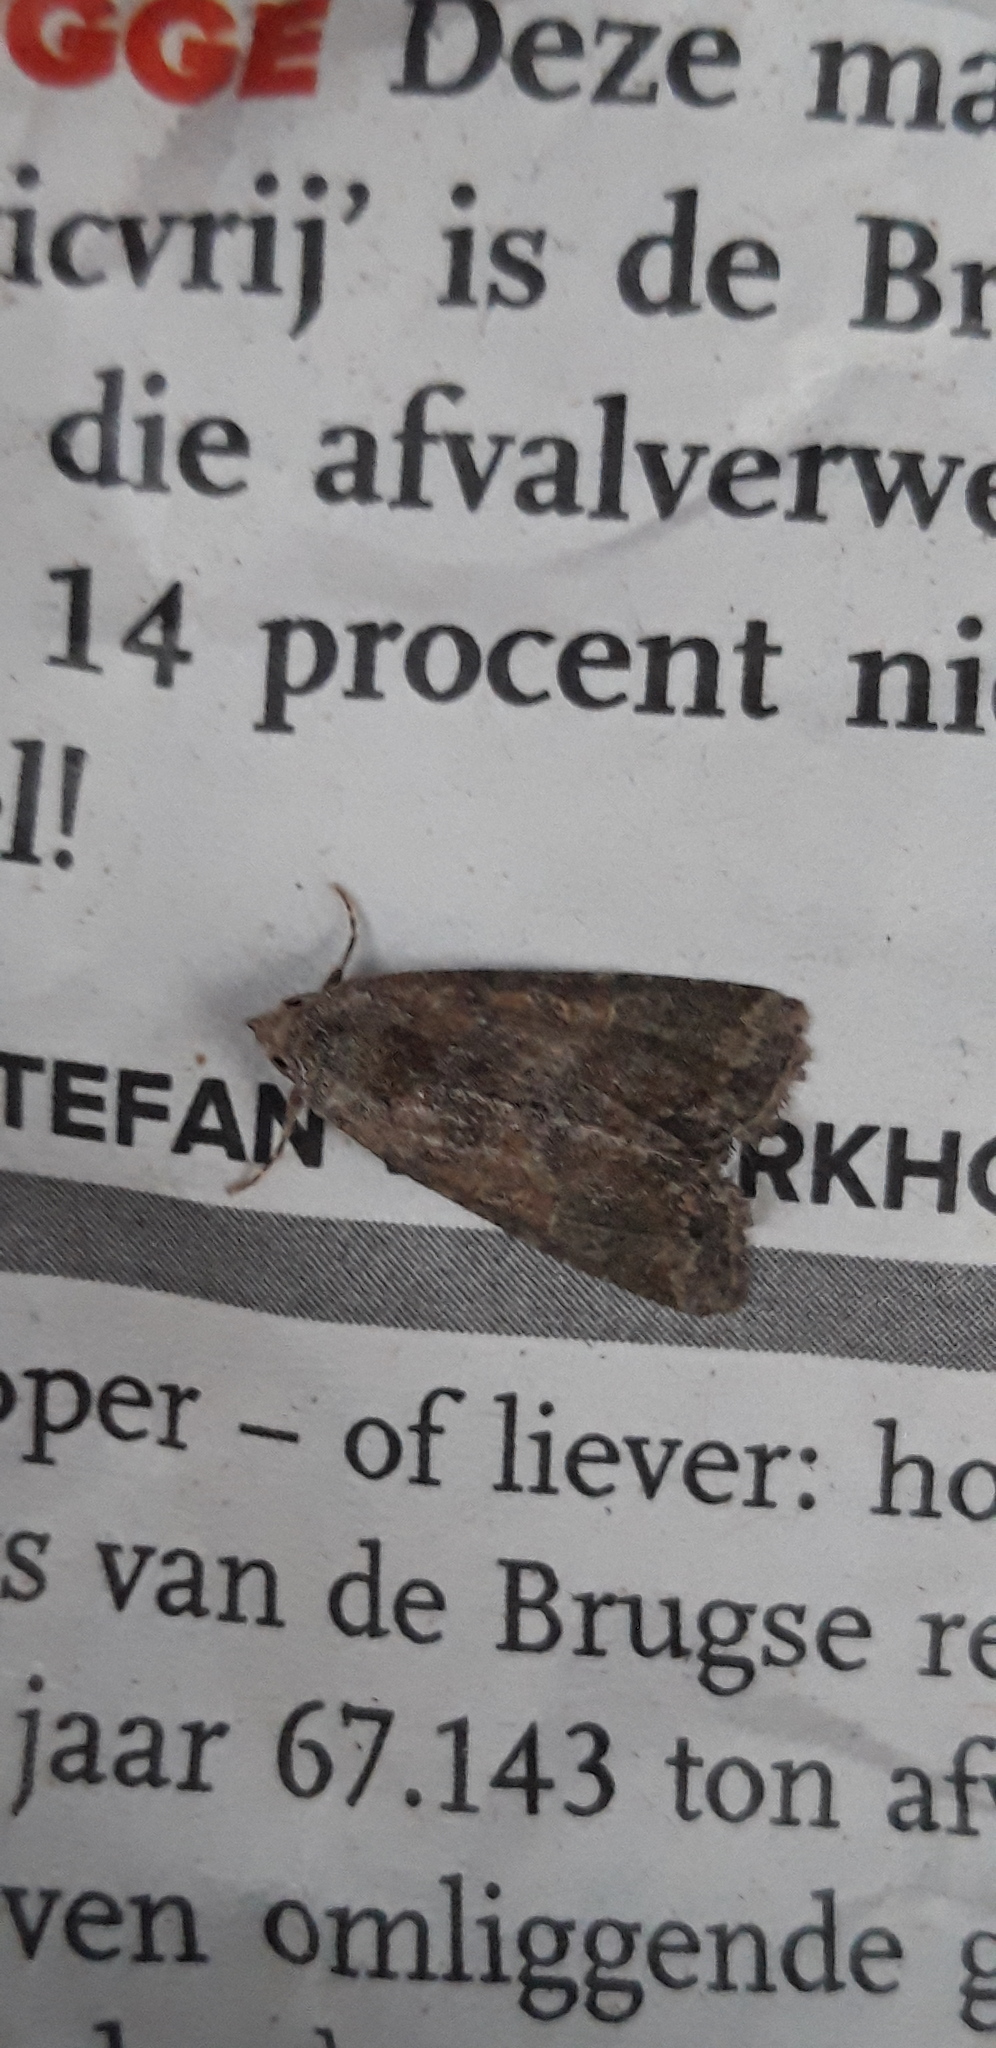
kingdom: Animalia
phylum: Arthropoda
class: Insecta
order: Lepidoptera
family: Noctuidae
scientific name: Noctuidae
